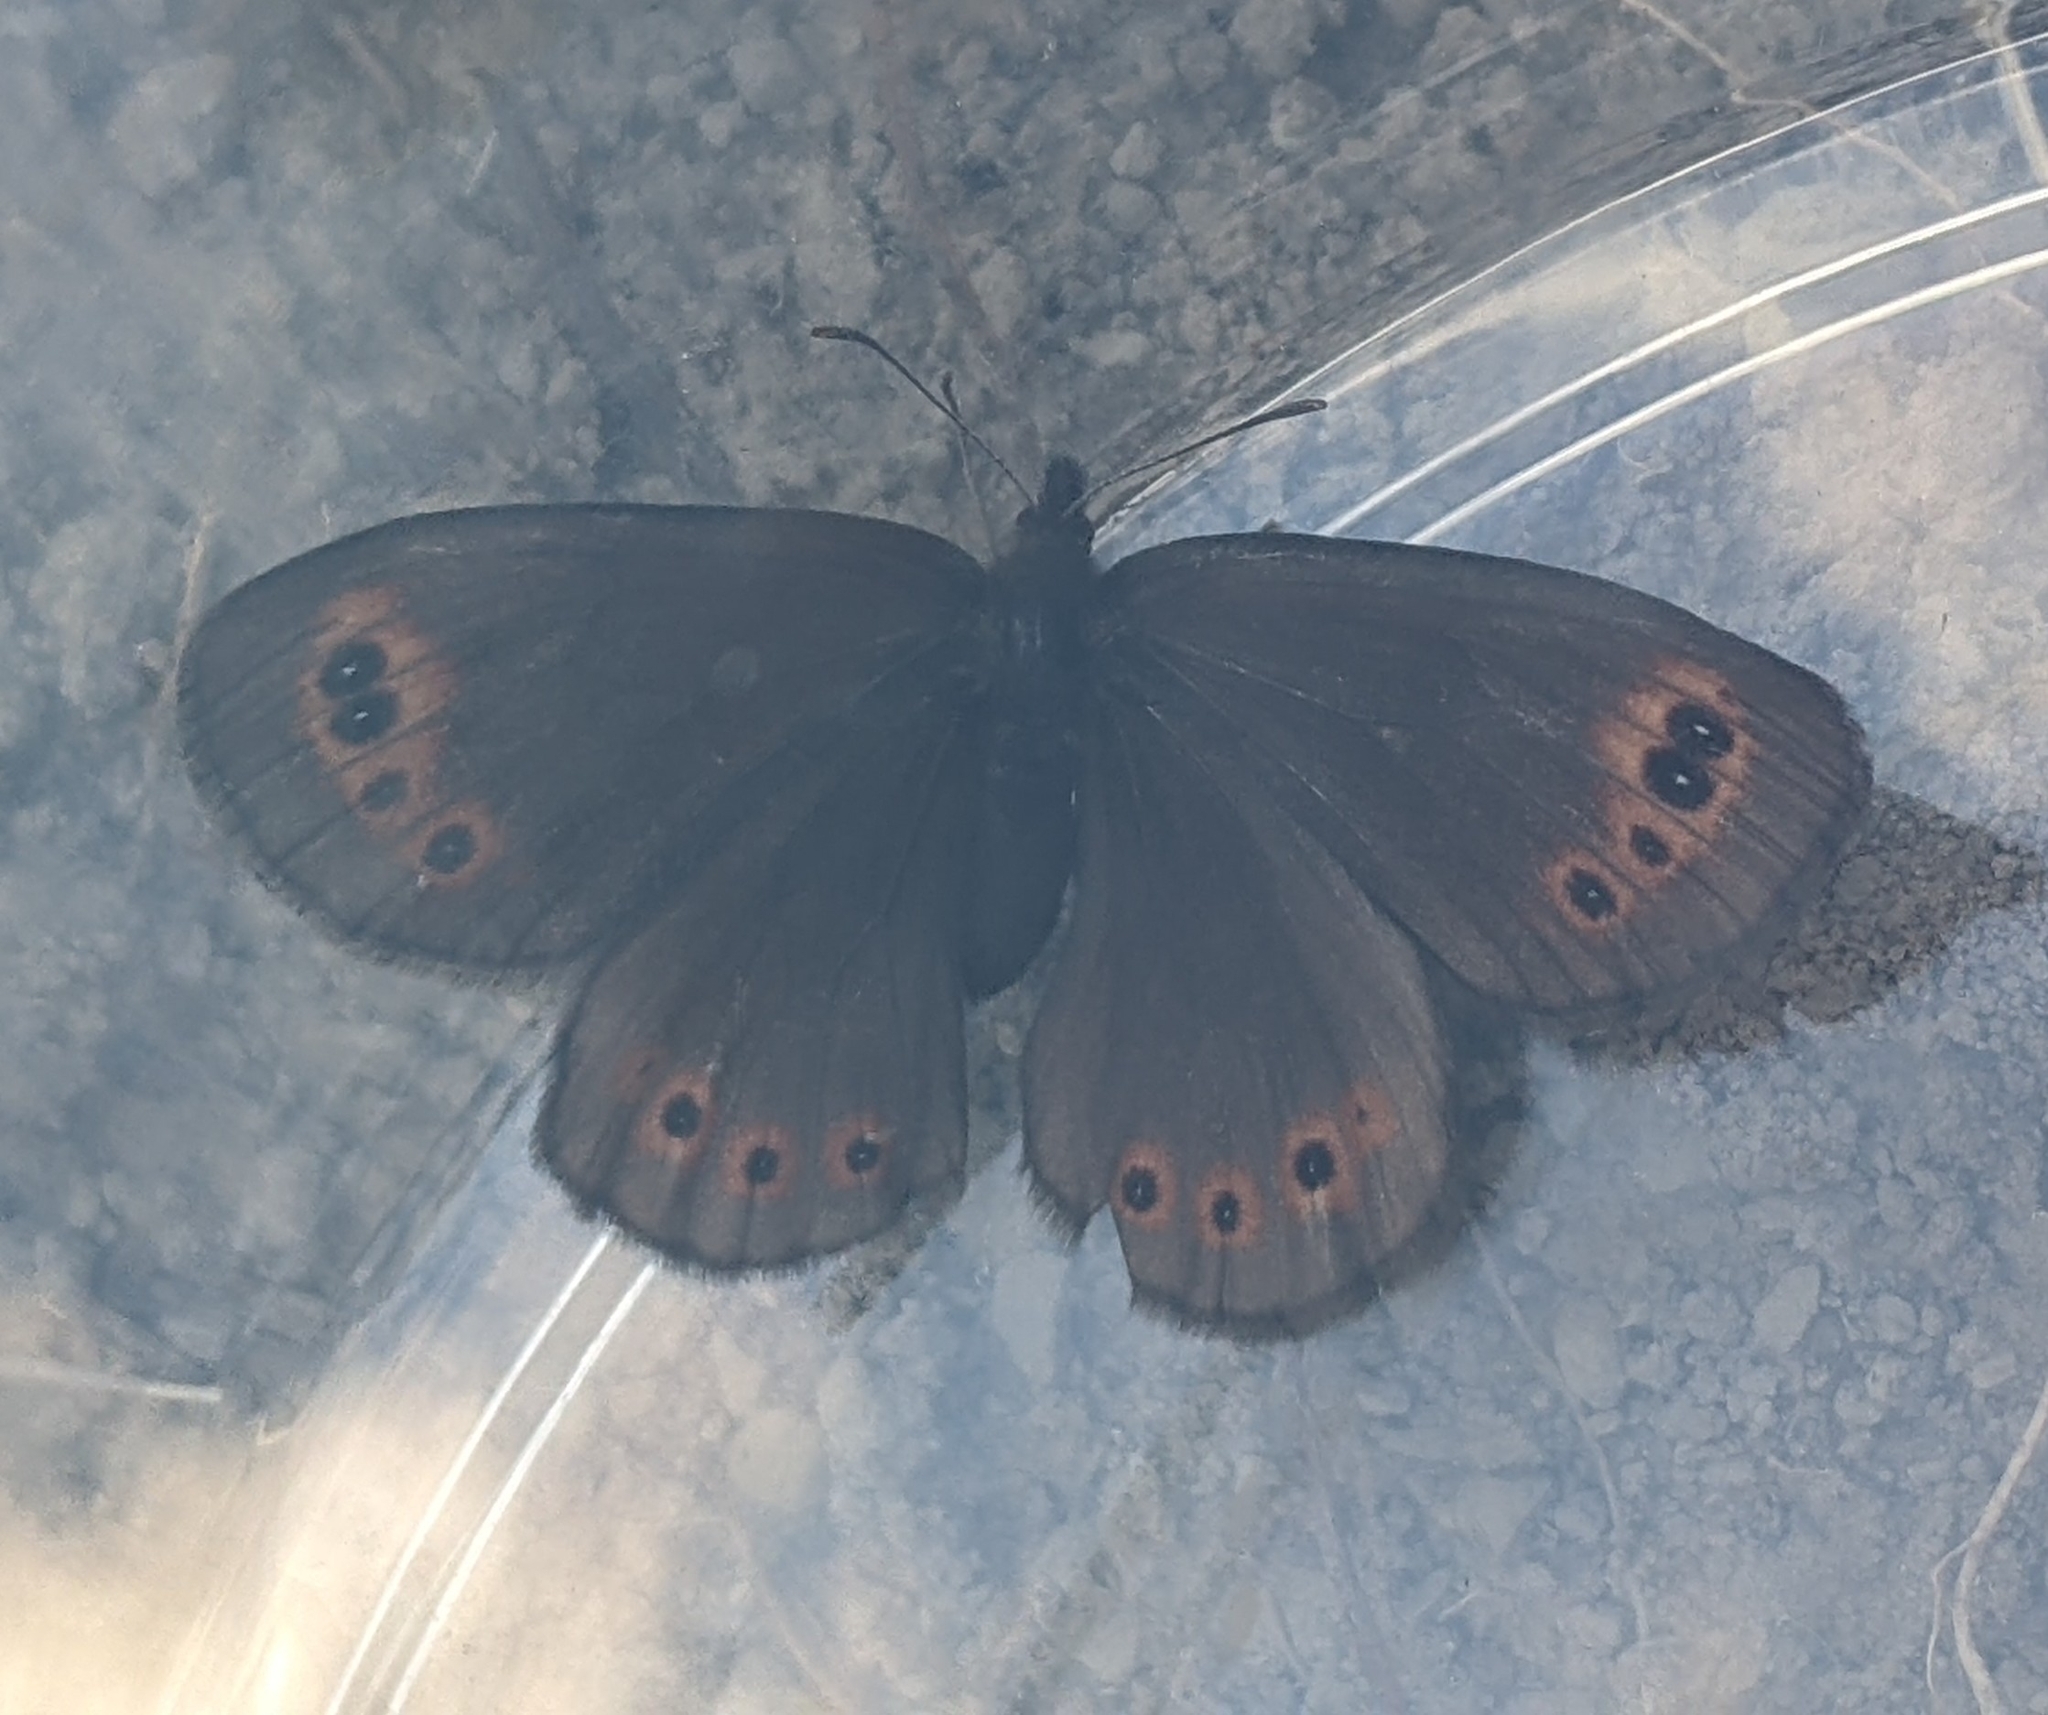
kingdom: Animalia
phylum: Arthropoda
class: Insecta
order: Lepidoptera
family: Nymphalidae
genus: Erebia
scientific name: Erebia epipsodea
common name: Common alpine
